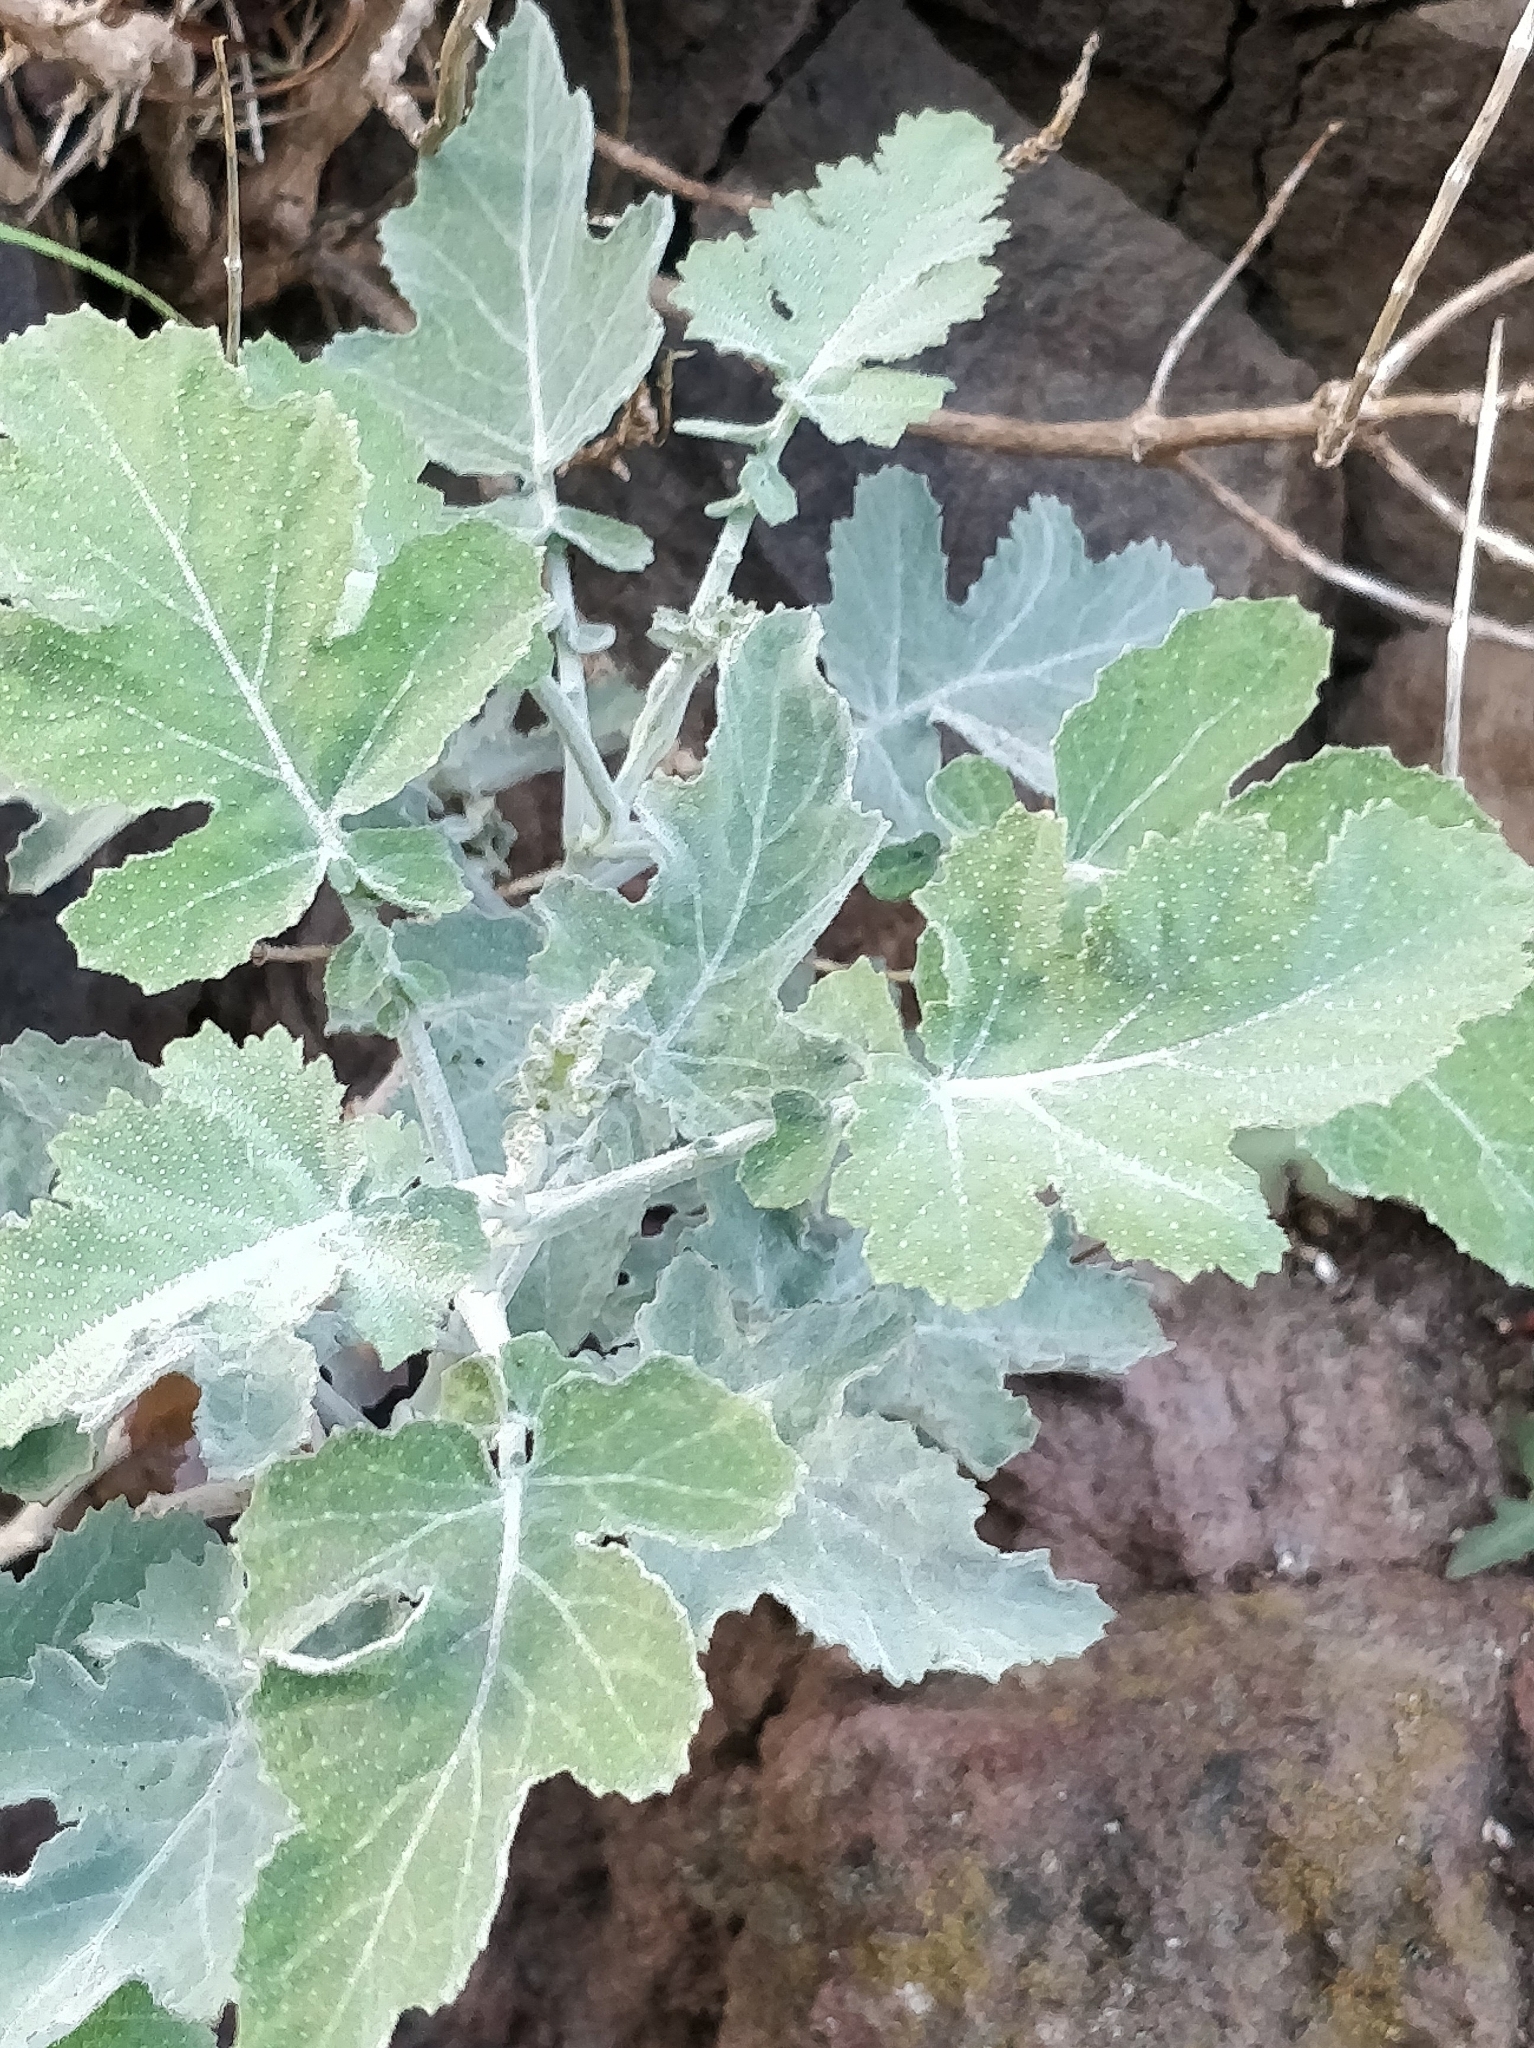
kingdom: Plantae
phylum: Tracheophyta
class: Magnoliopsida
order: Brassicales
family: Brassicaceae
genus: Crambe
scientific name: Crambe fruticosa
